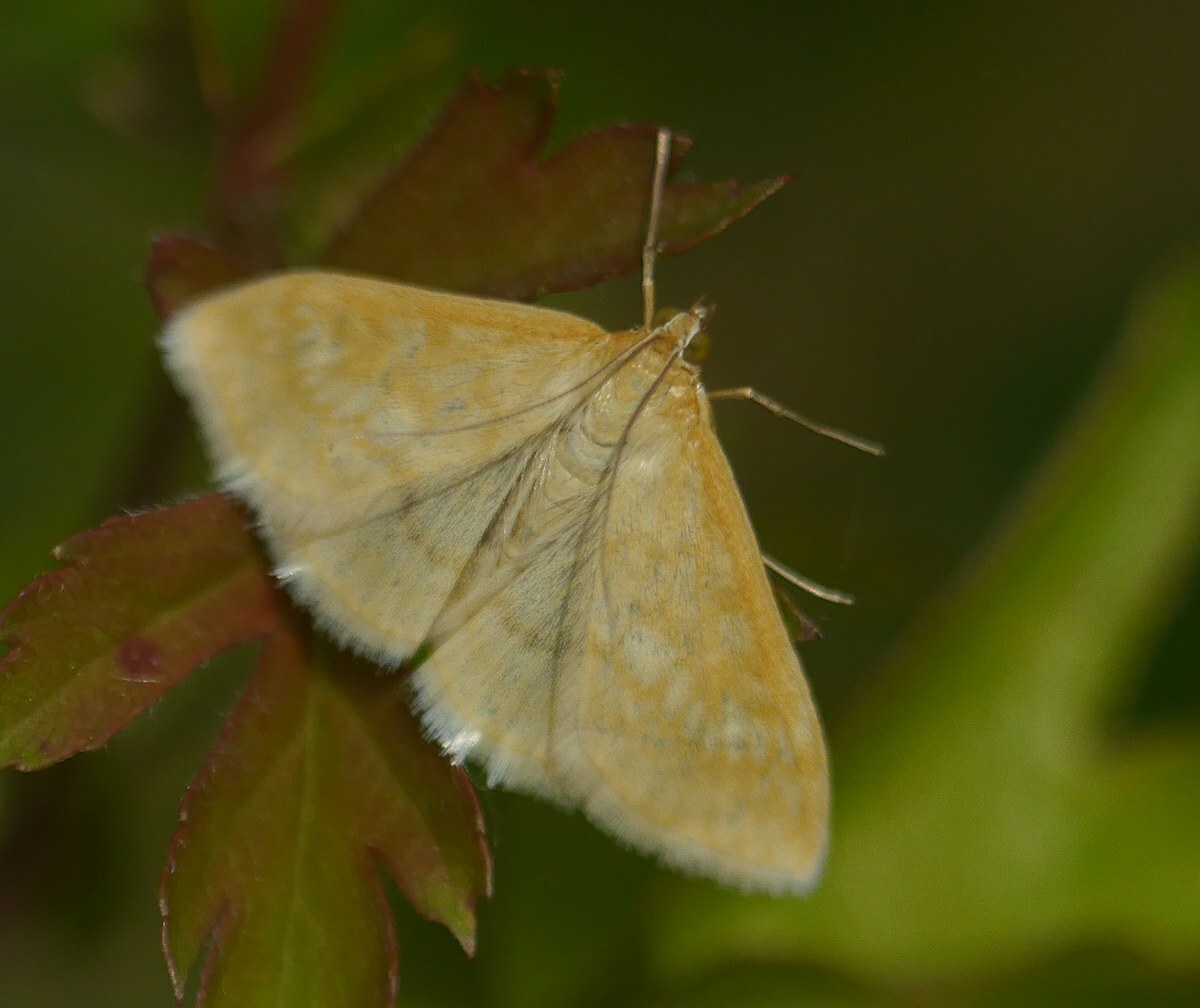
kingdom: Animalia
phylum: Arthropoda
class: Insecta
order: Lepidoptera
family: Crambidae
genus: Sitochroa
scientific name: Sitochroa verticalis
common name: Lesser pearl
